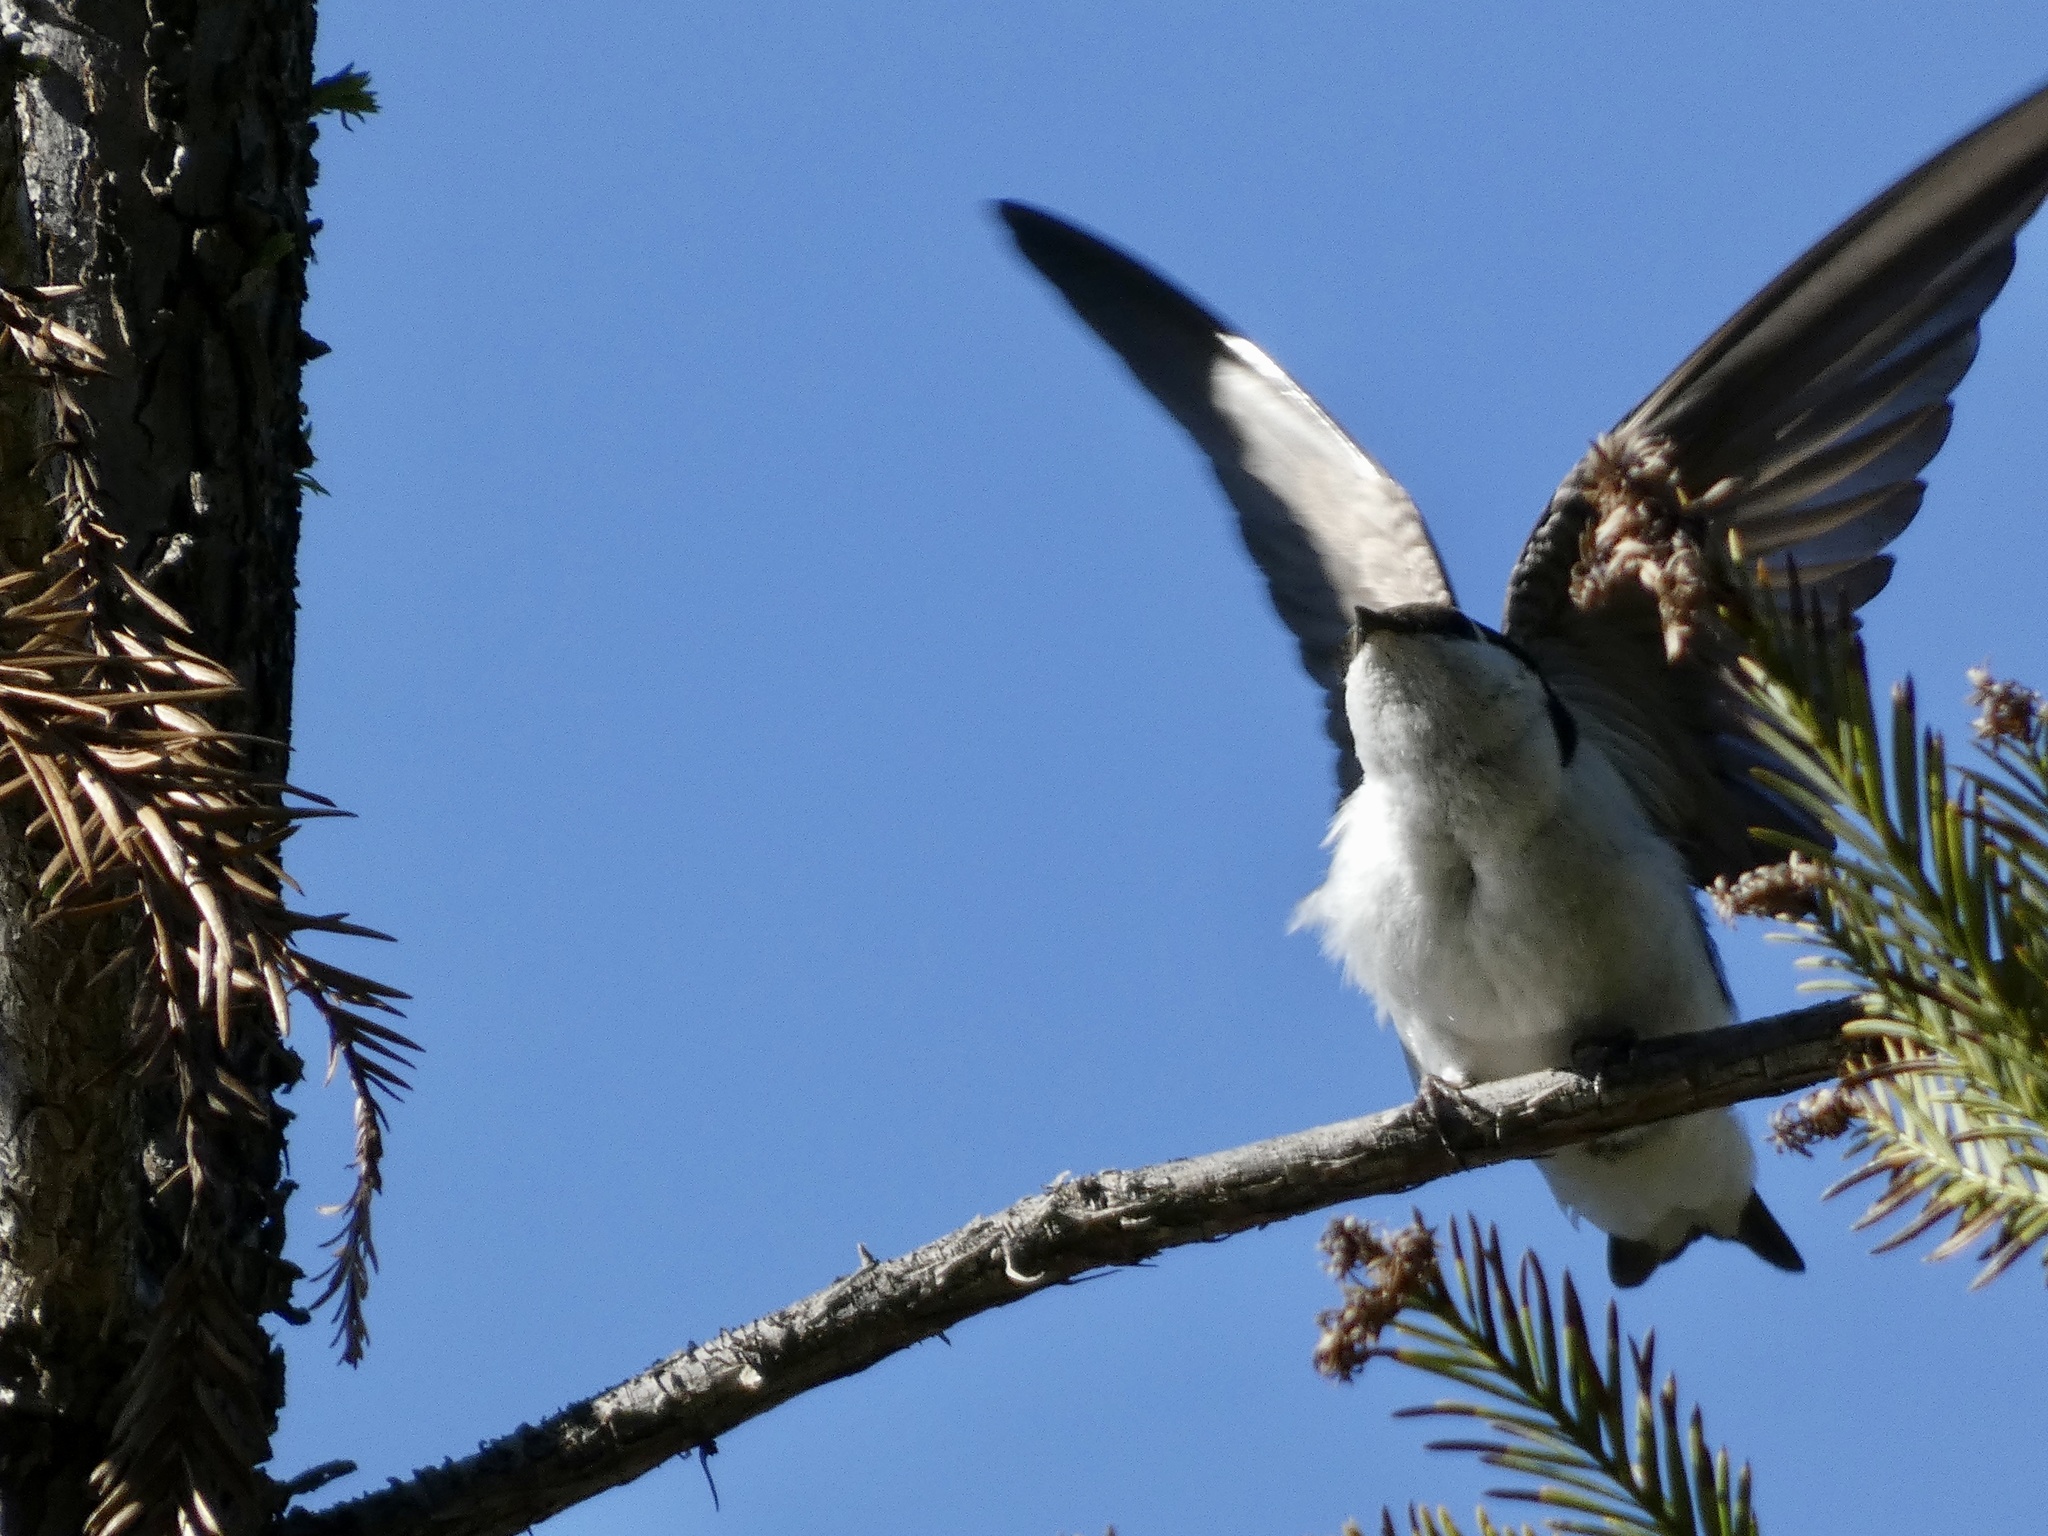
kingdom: Animalia
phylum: Chordata
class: Aves
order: Passeriformes
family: Hirundinidae
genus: Tachycineta
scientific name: Tachycineta thalassina
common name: Violet-green swallow
